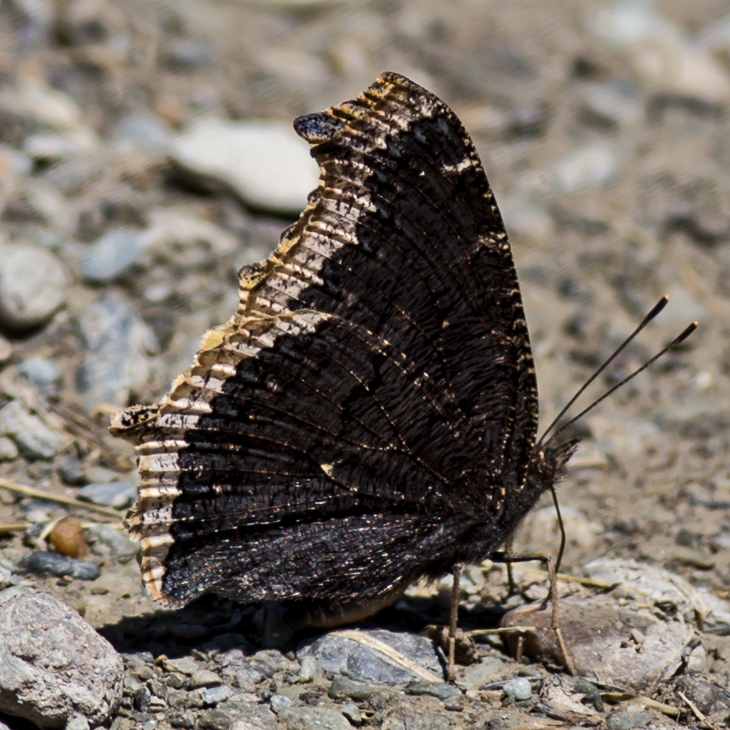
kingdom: Animalia
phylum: Arthropoda
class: Insecta
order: Lepidoptera
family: Nymphalidae
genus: Nymphalis
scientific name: Nymphalis antiopa
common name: Camberwell beauty
